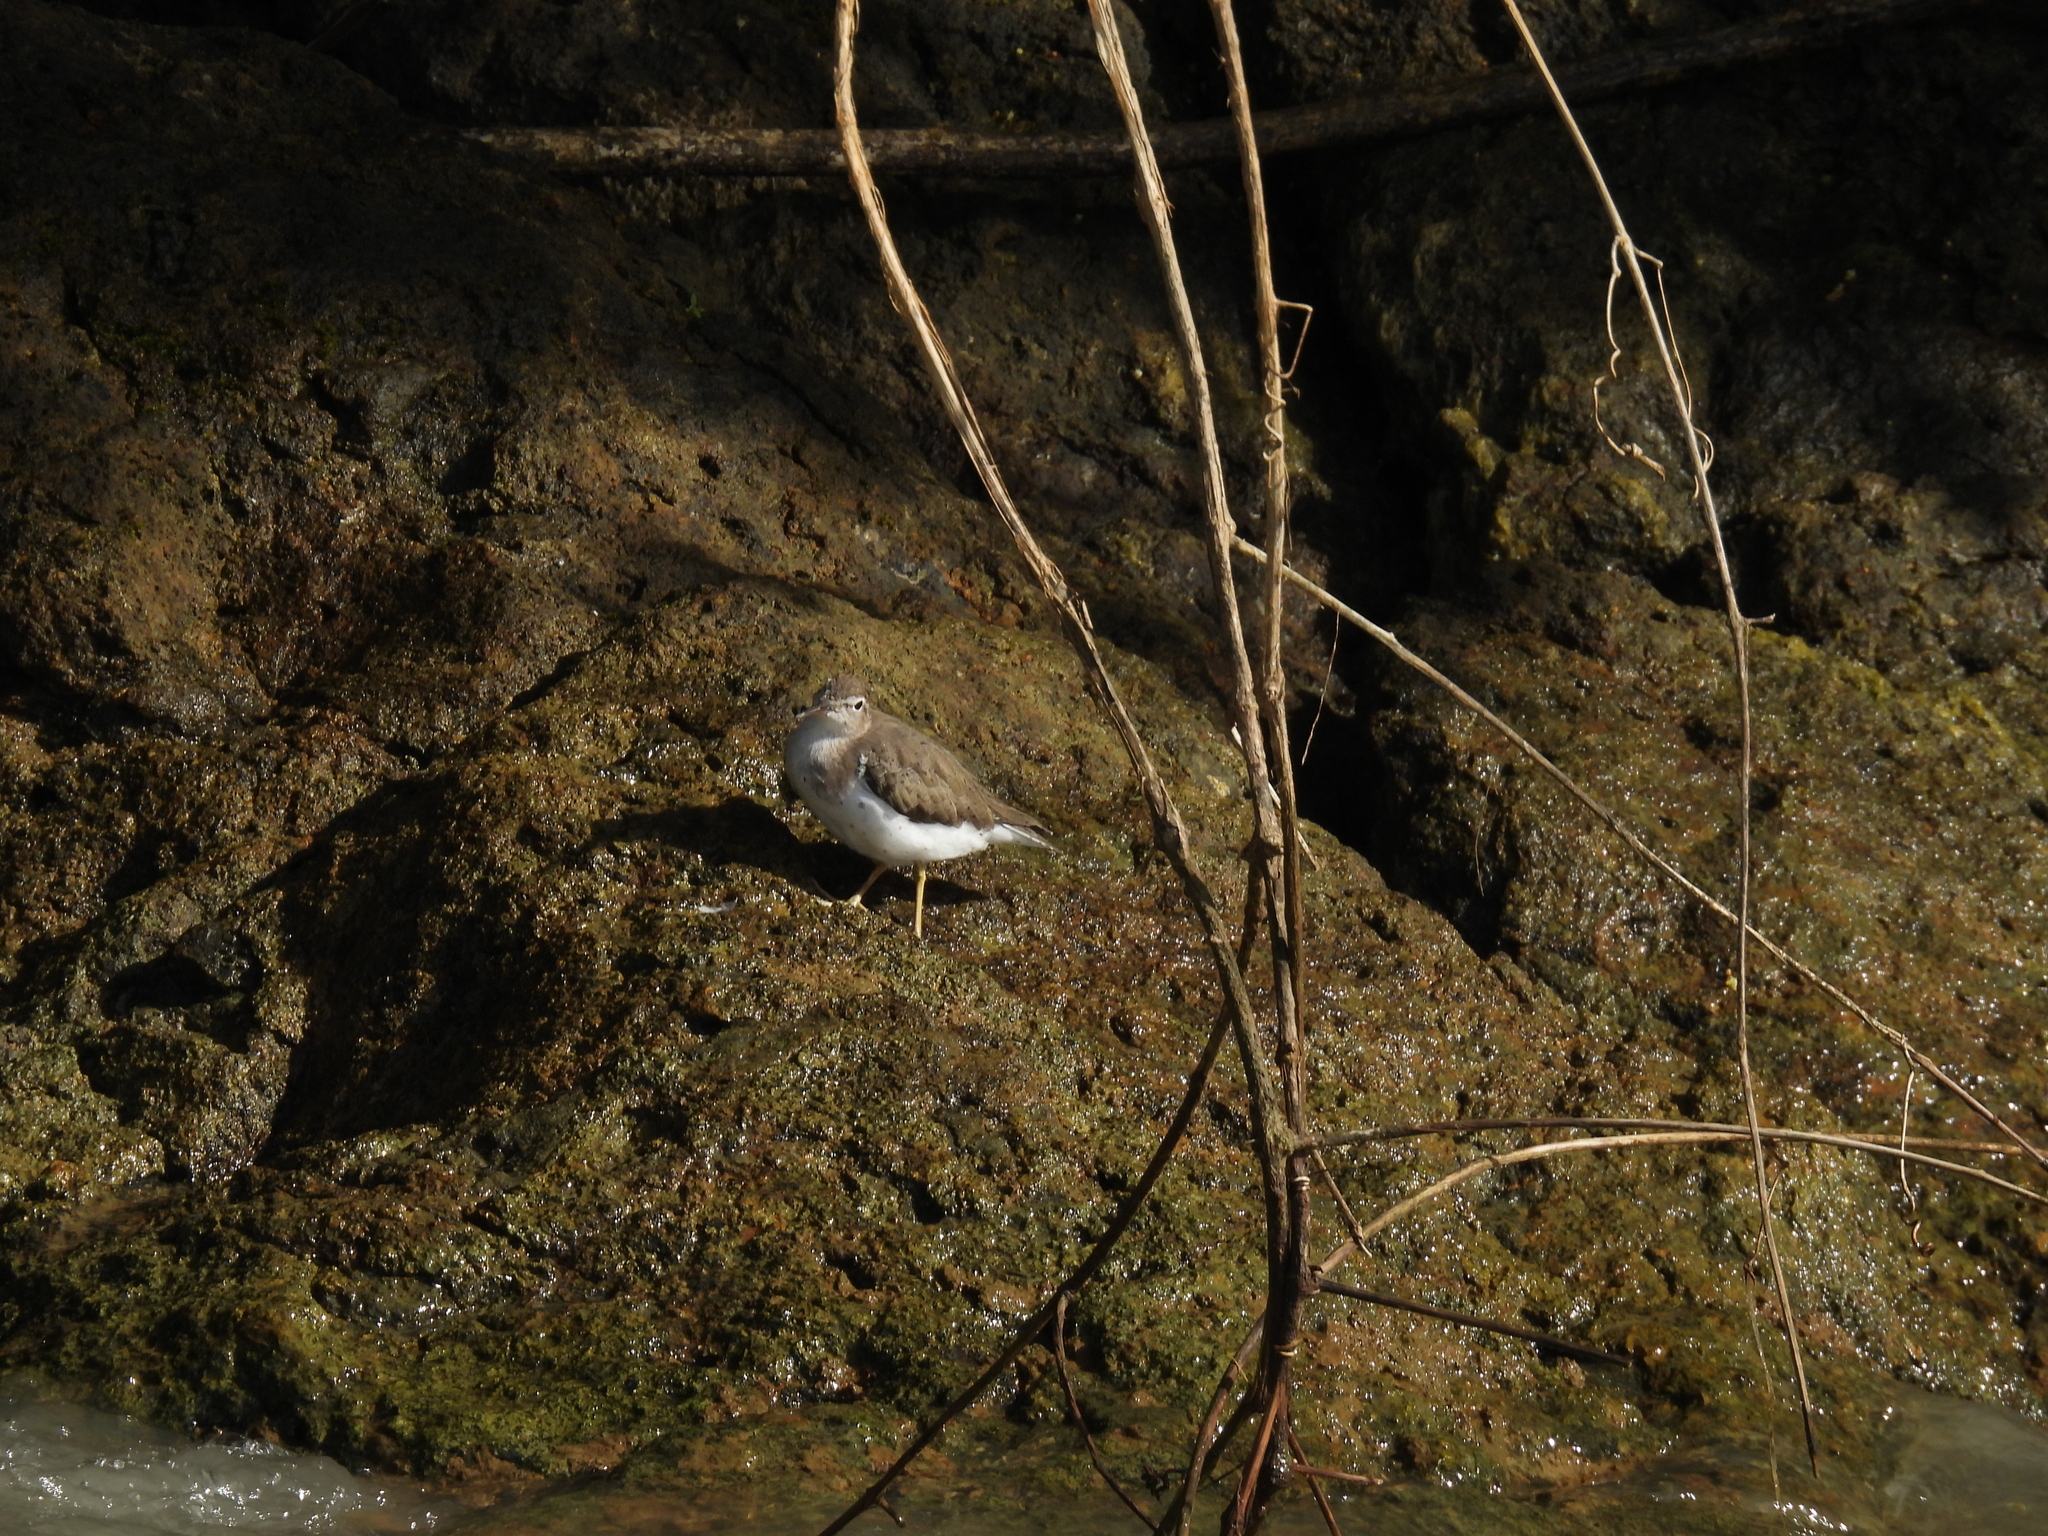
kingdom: Animalia
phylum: Chordata
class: Aves
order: Charadriiformes
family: Scolopacidae
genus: Actitis
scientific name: Actitis macularius
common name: Spotted sandpiper
